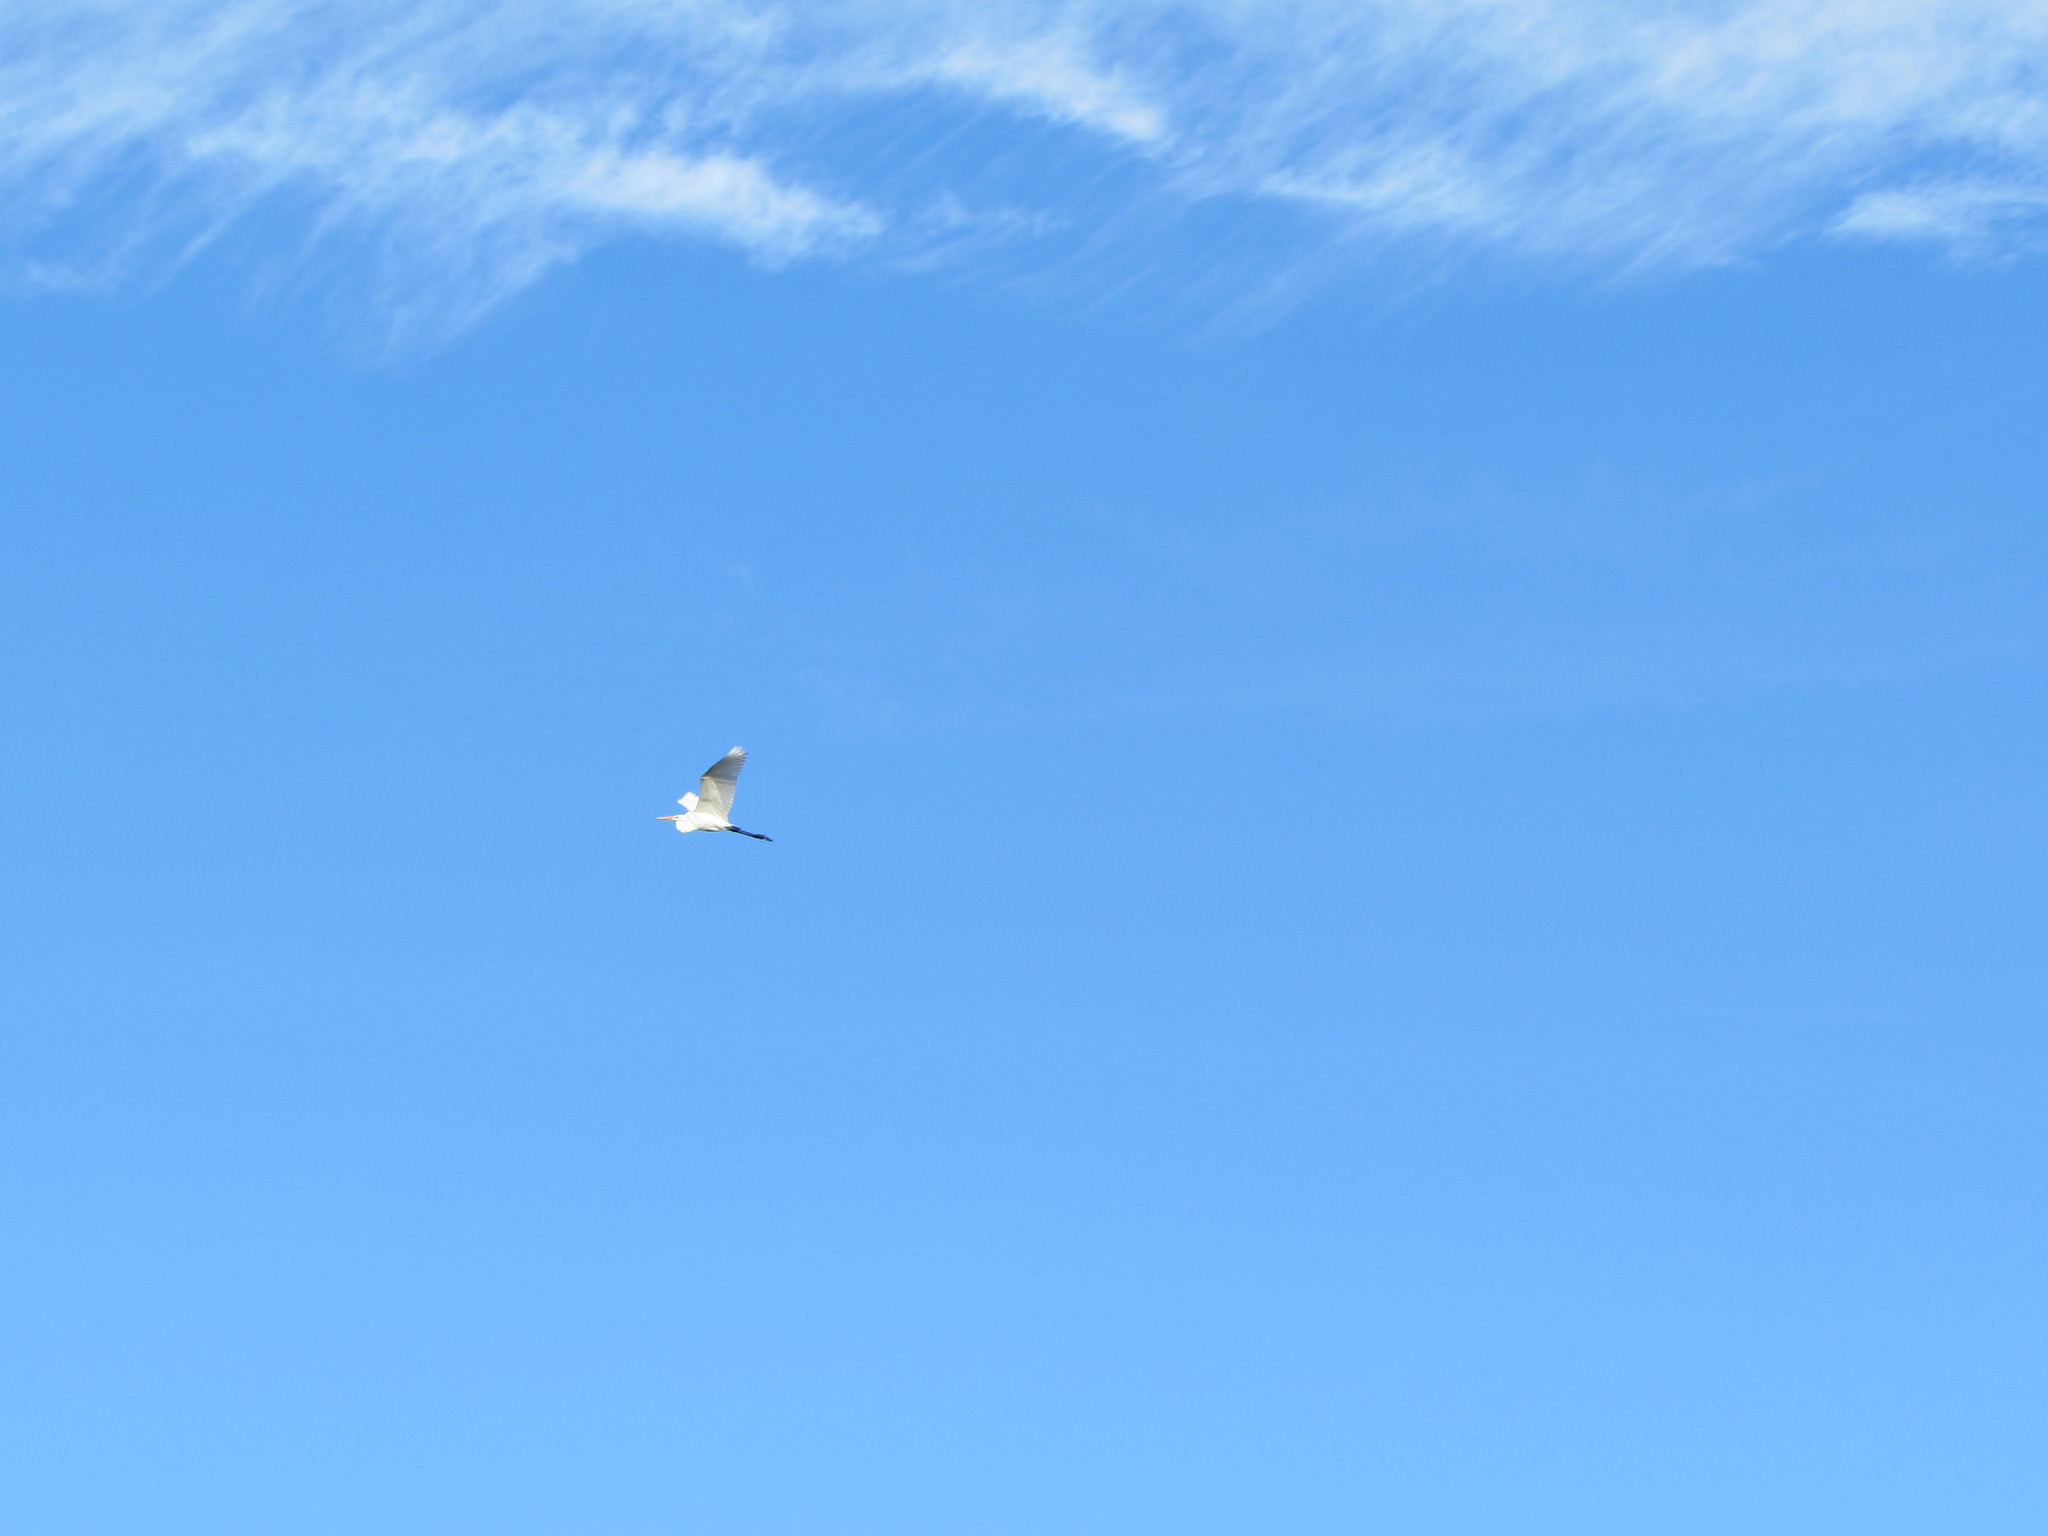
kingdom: Animalia
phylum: Chordata
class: Aves
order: Pelecaniformes
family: Ardeidae
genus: Ardea
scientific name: Ardea alba
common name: Great egret
